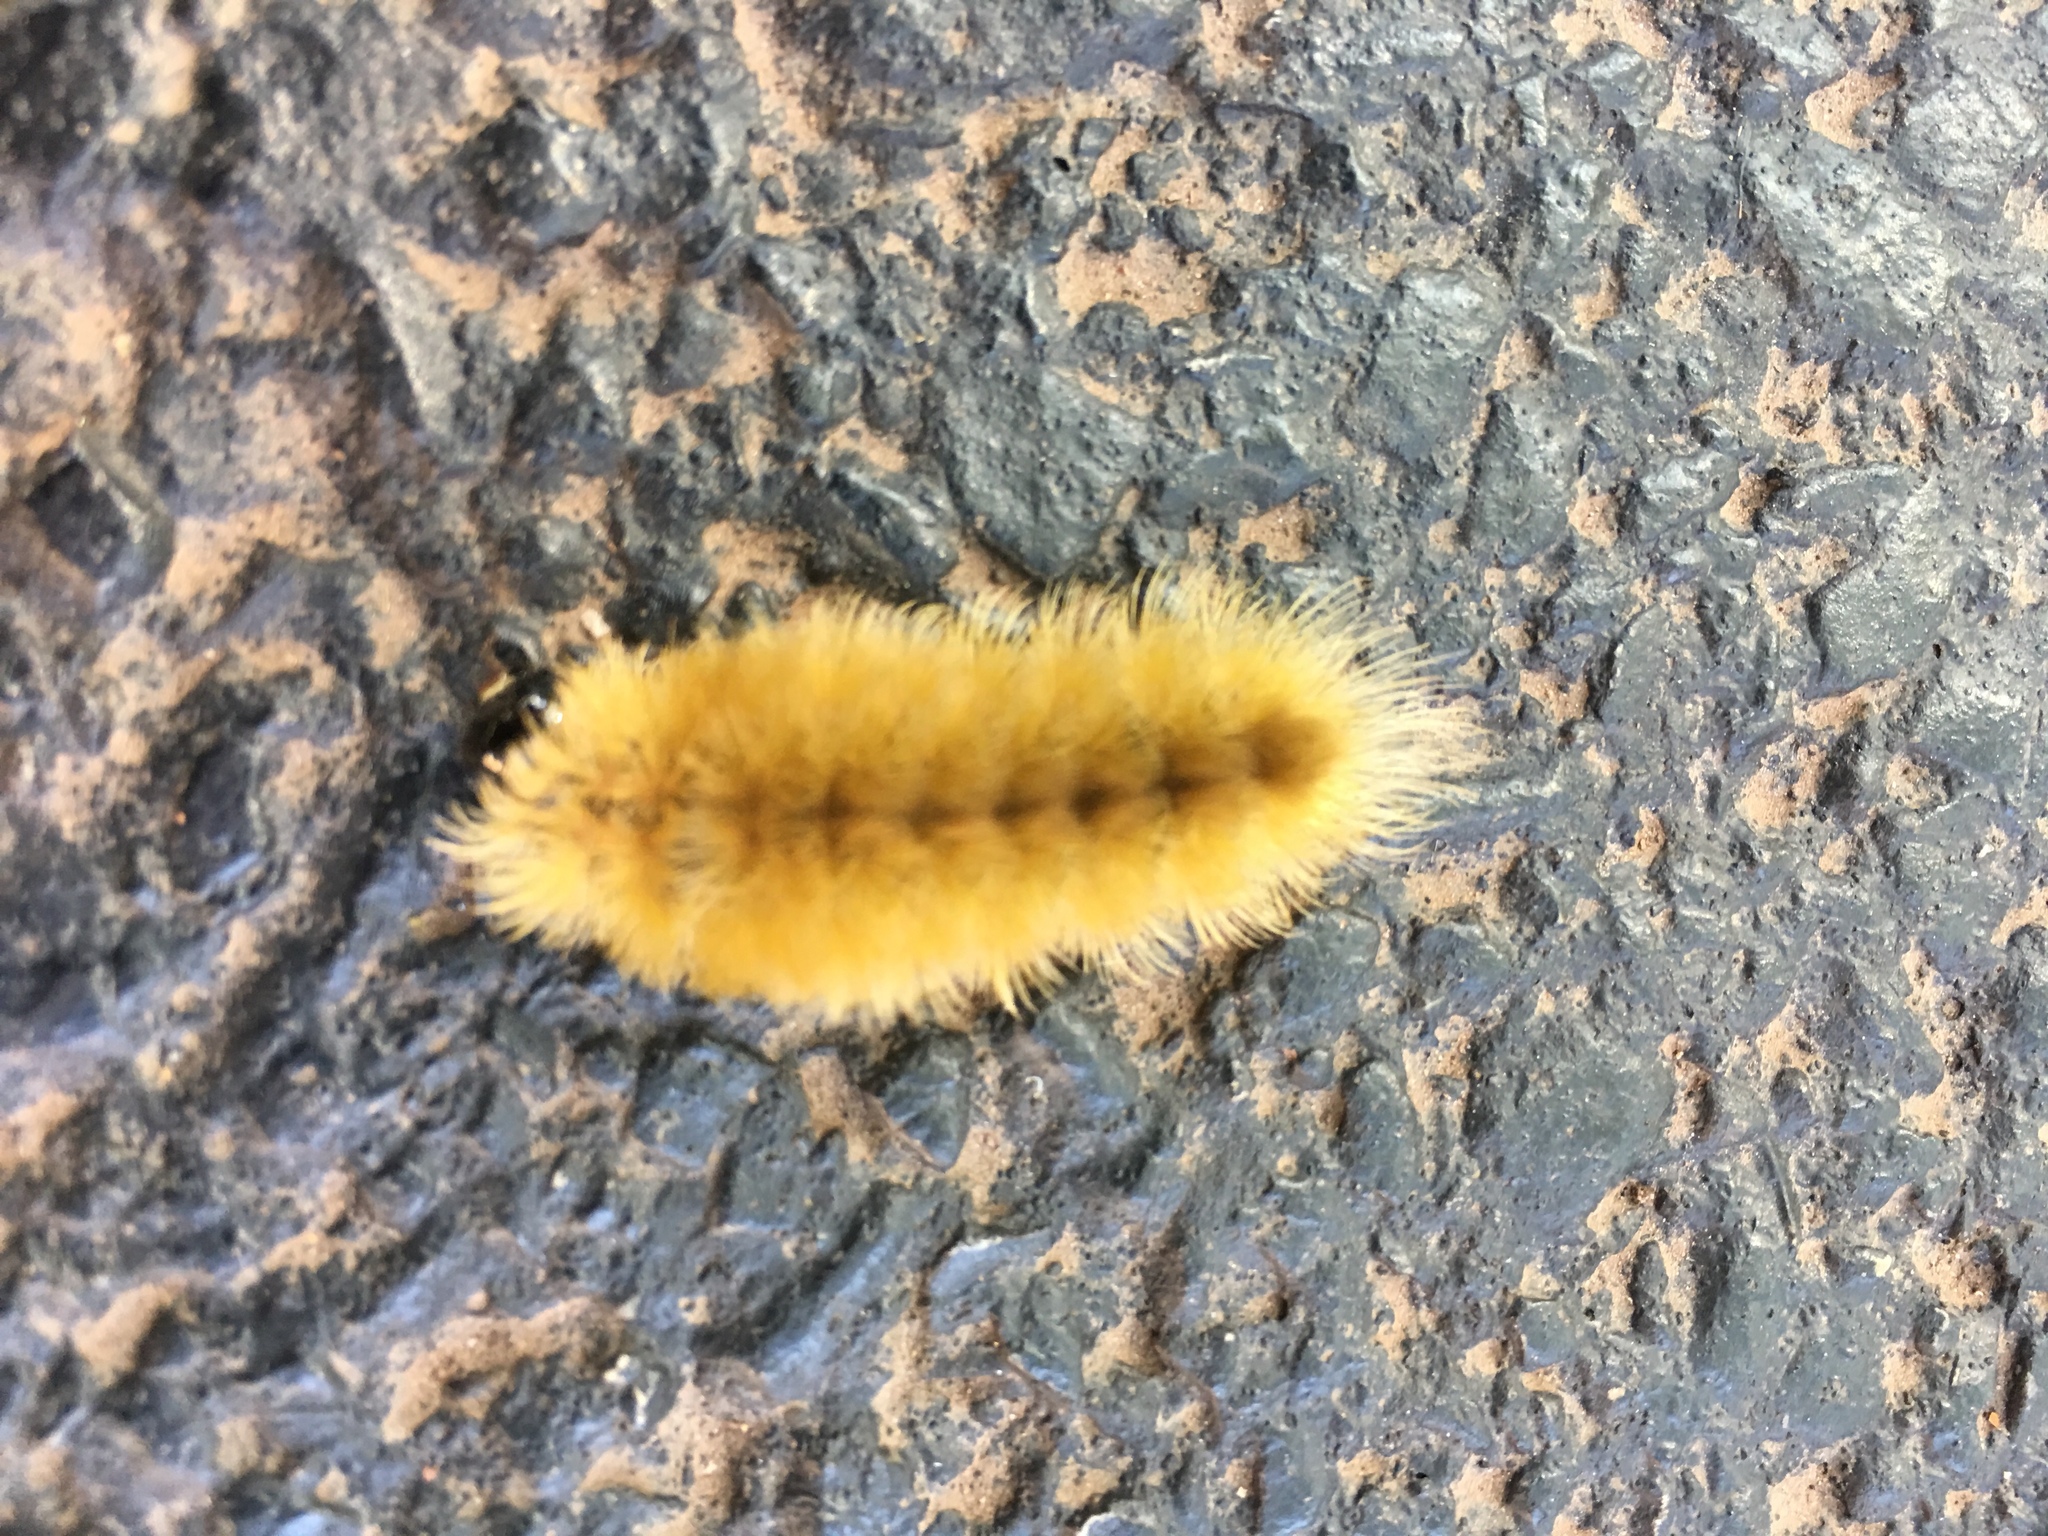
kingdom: Animalia
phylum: Arthropoda
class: Insecta
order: Lepidoptera
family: Erebidae
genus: Halysidota
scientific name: Halysidota tessellaris
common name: Banded tussock moth
